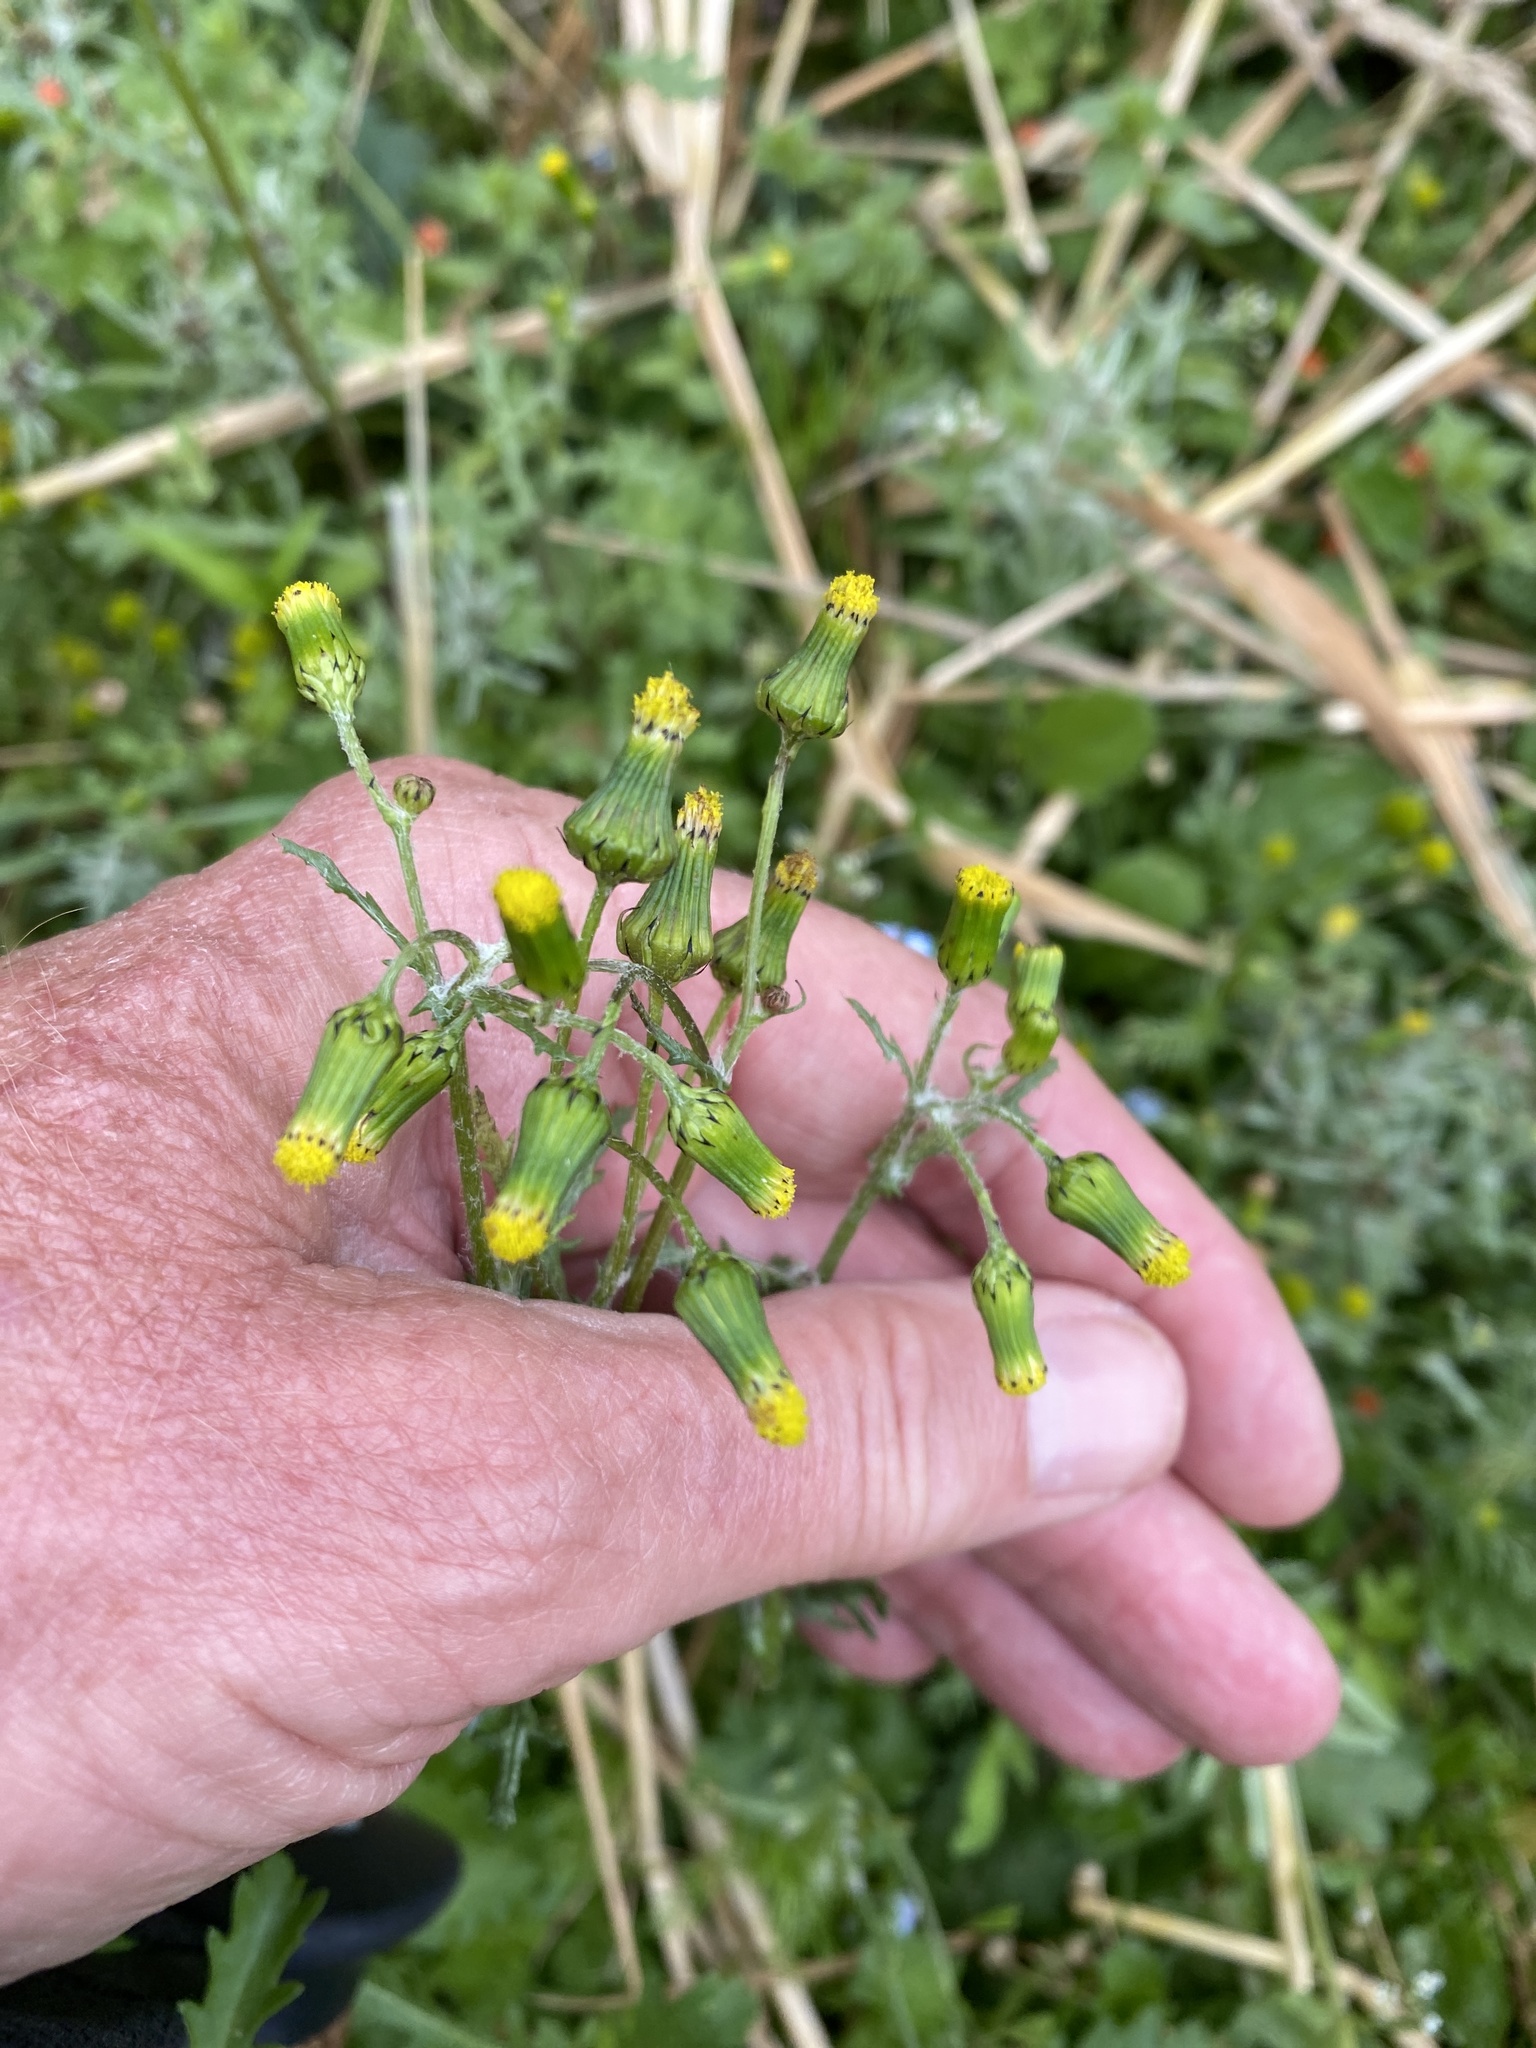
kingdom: Plantae
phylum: Tracheophyta
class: Magnoliopsida
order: Asterales
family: Asteraceae
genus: Senecio
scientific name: Senecio vulgaris
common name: Old-man-in-the-spring
